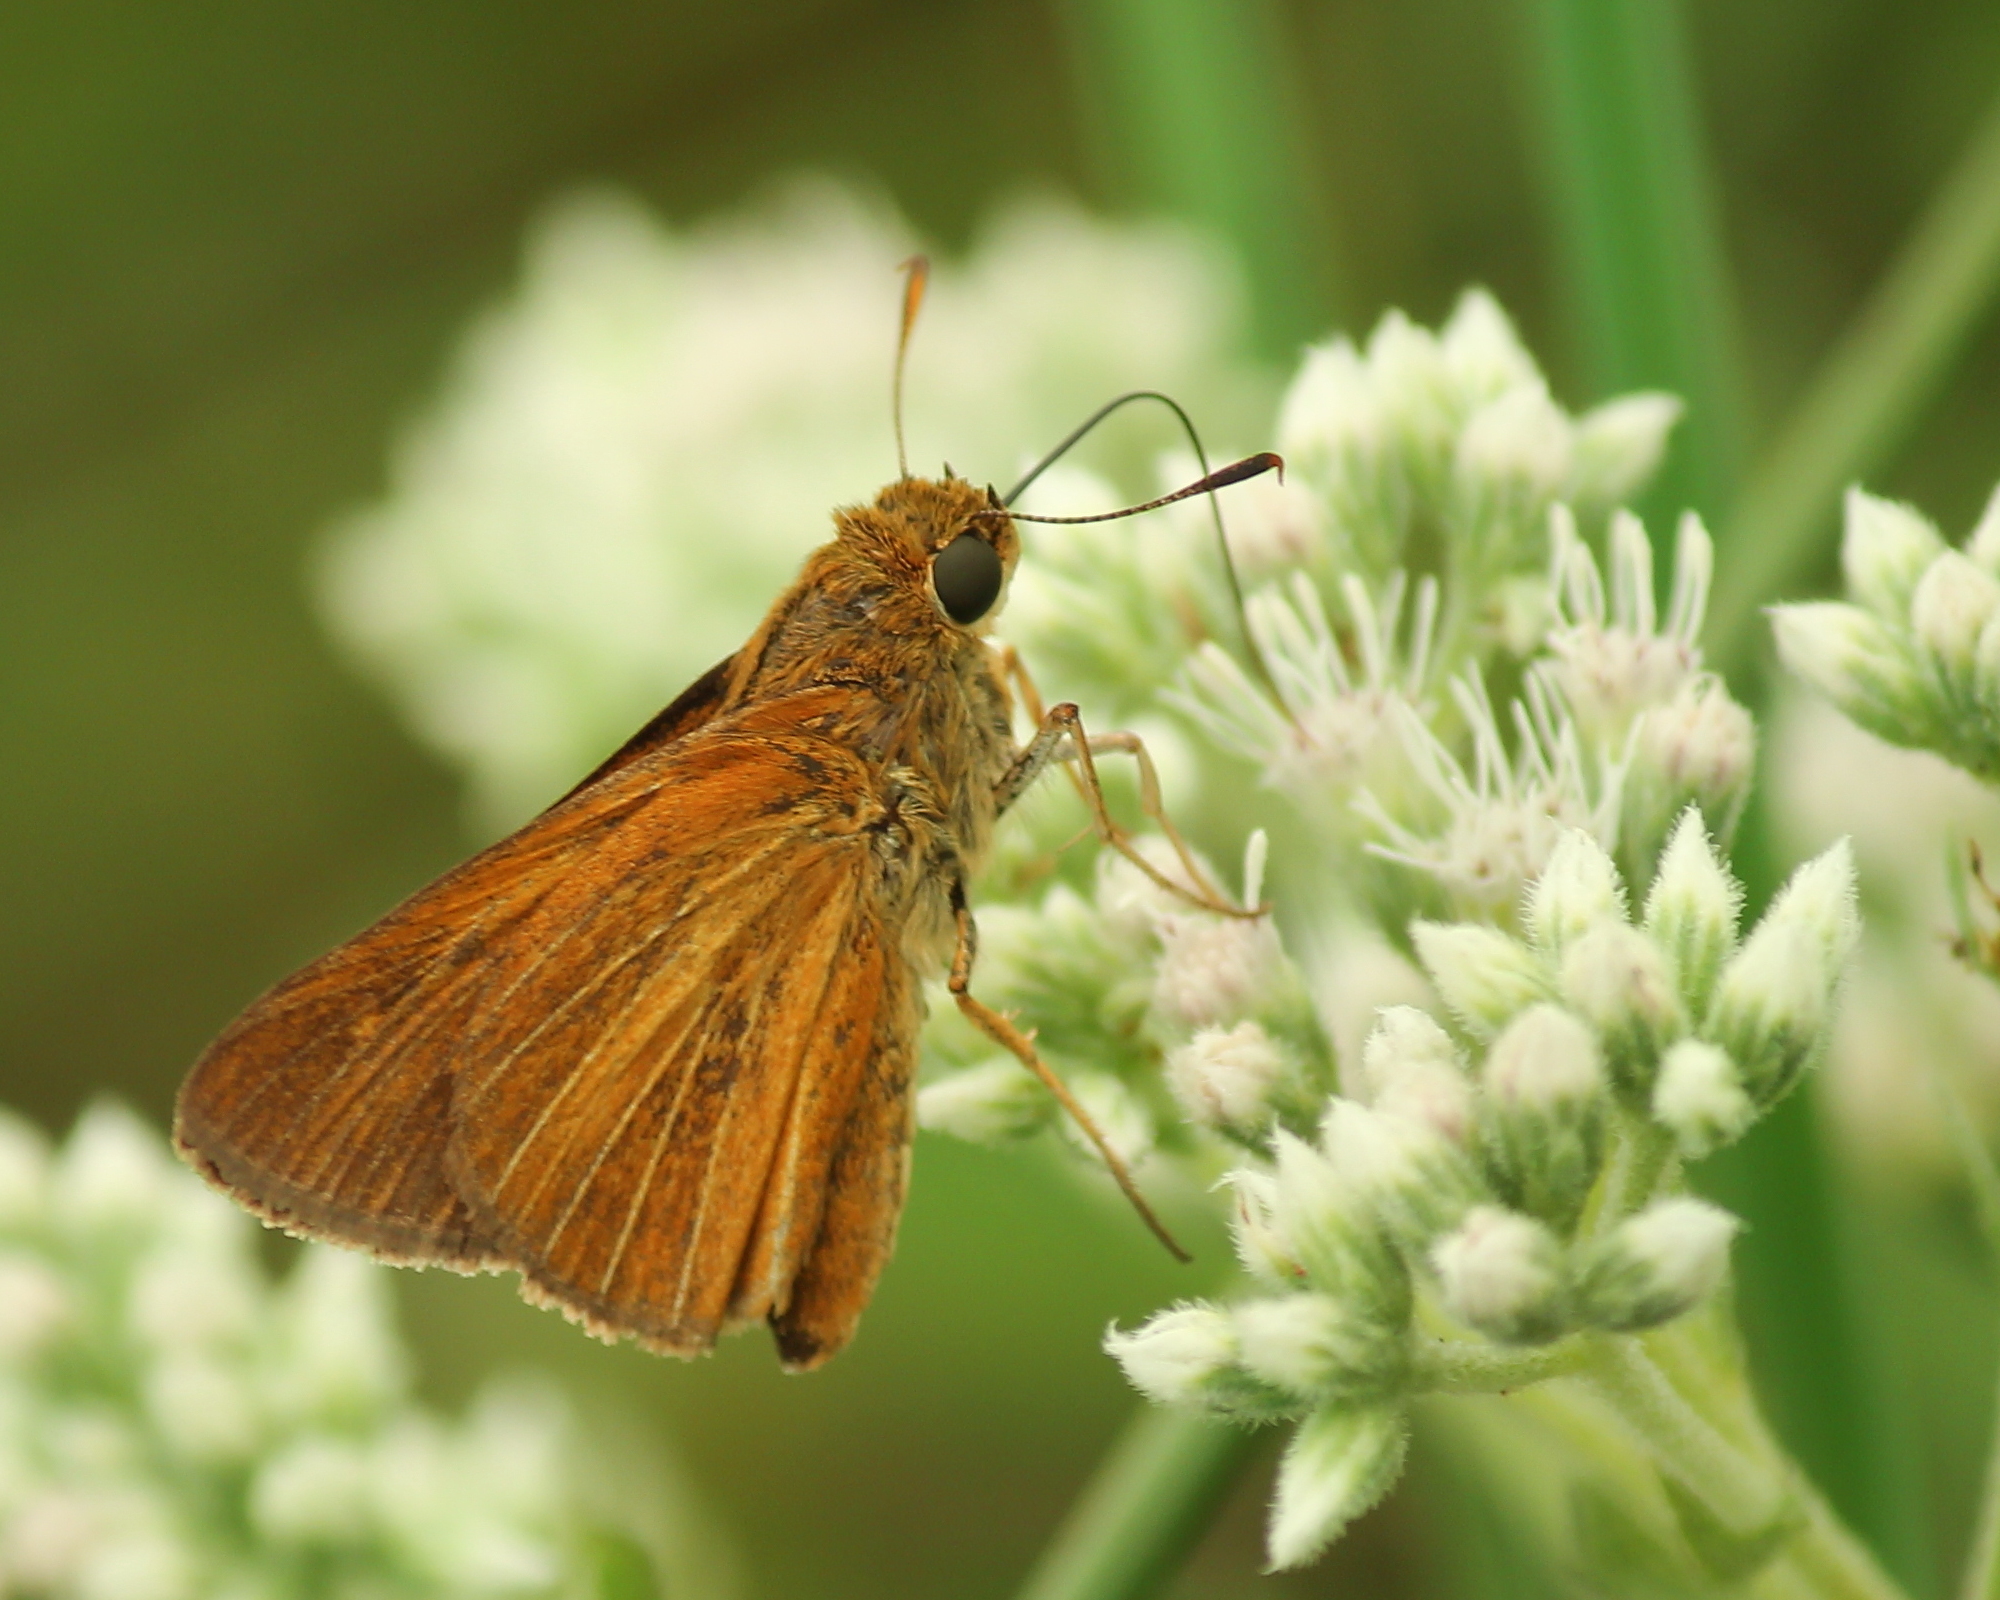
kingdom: Animalia
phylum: Arthropoda
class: Insecta
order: Lepidoptera
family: Hesperiidae
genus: Euphyes
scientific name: Euphyes dion
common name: Dion skipper
